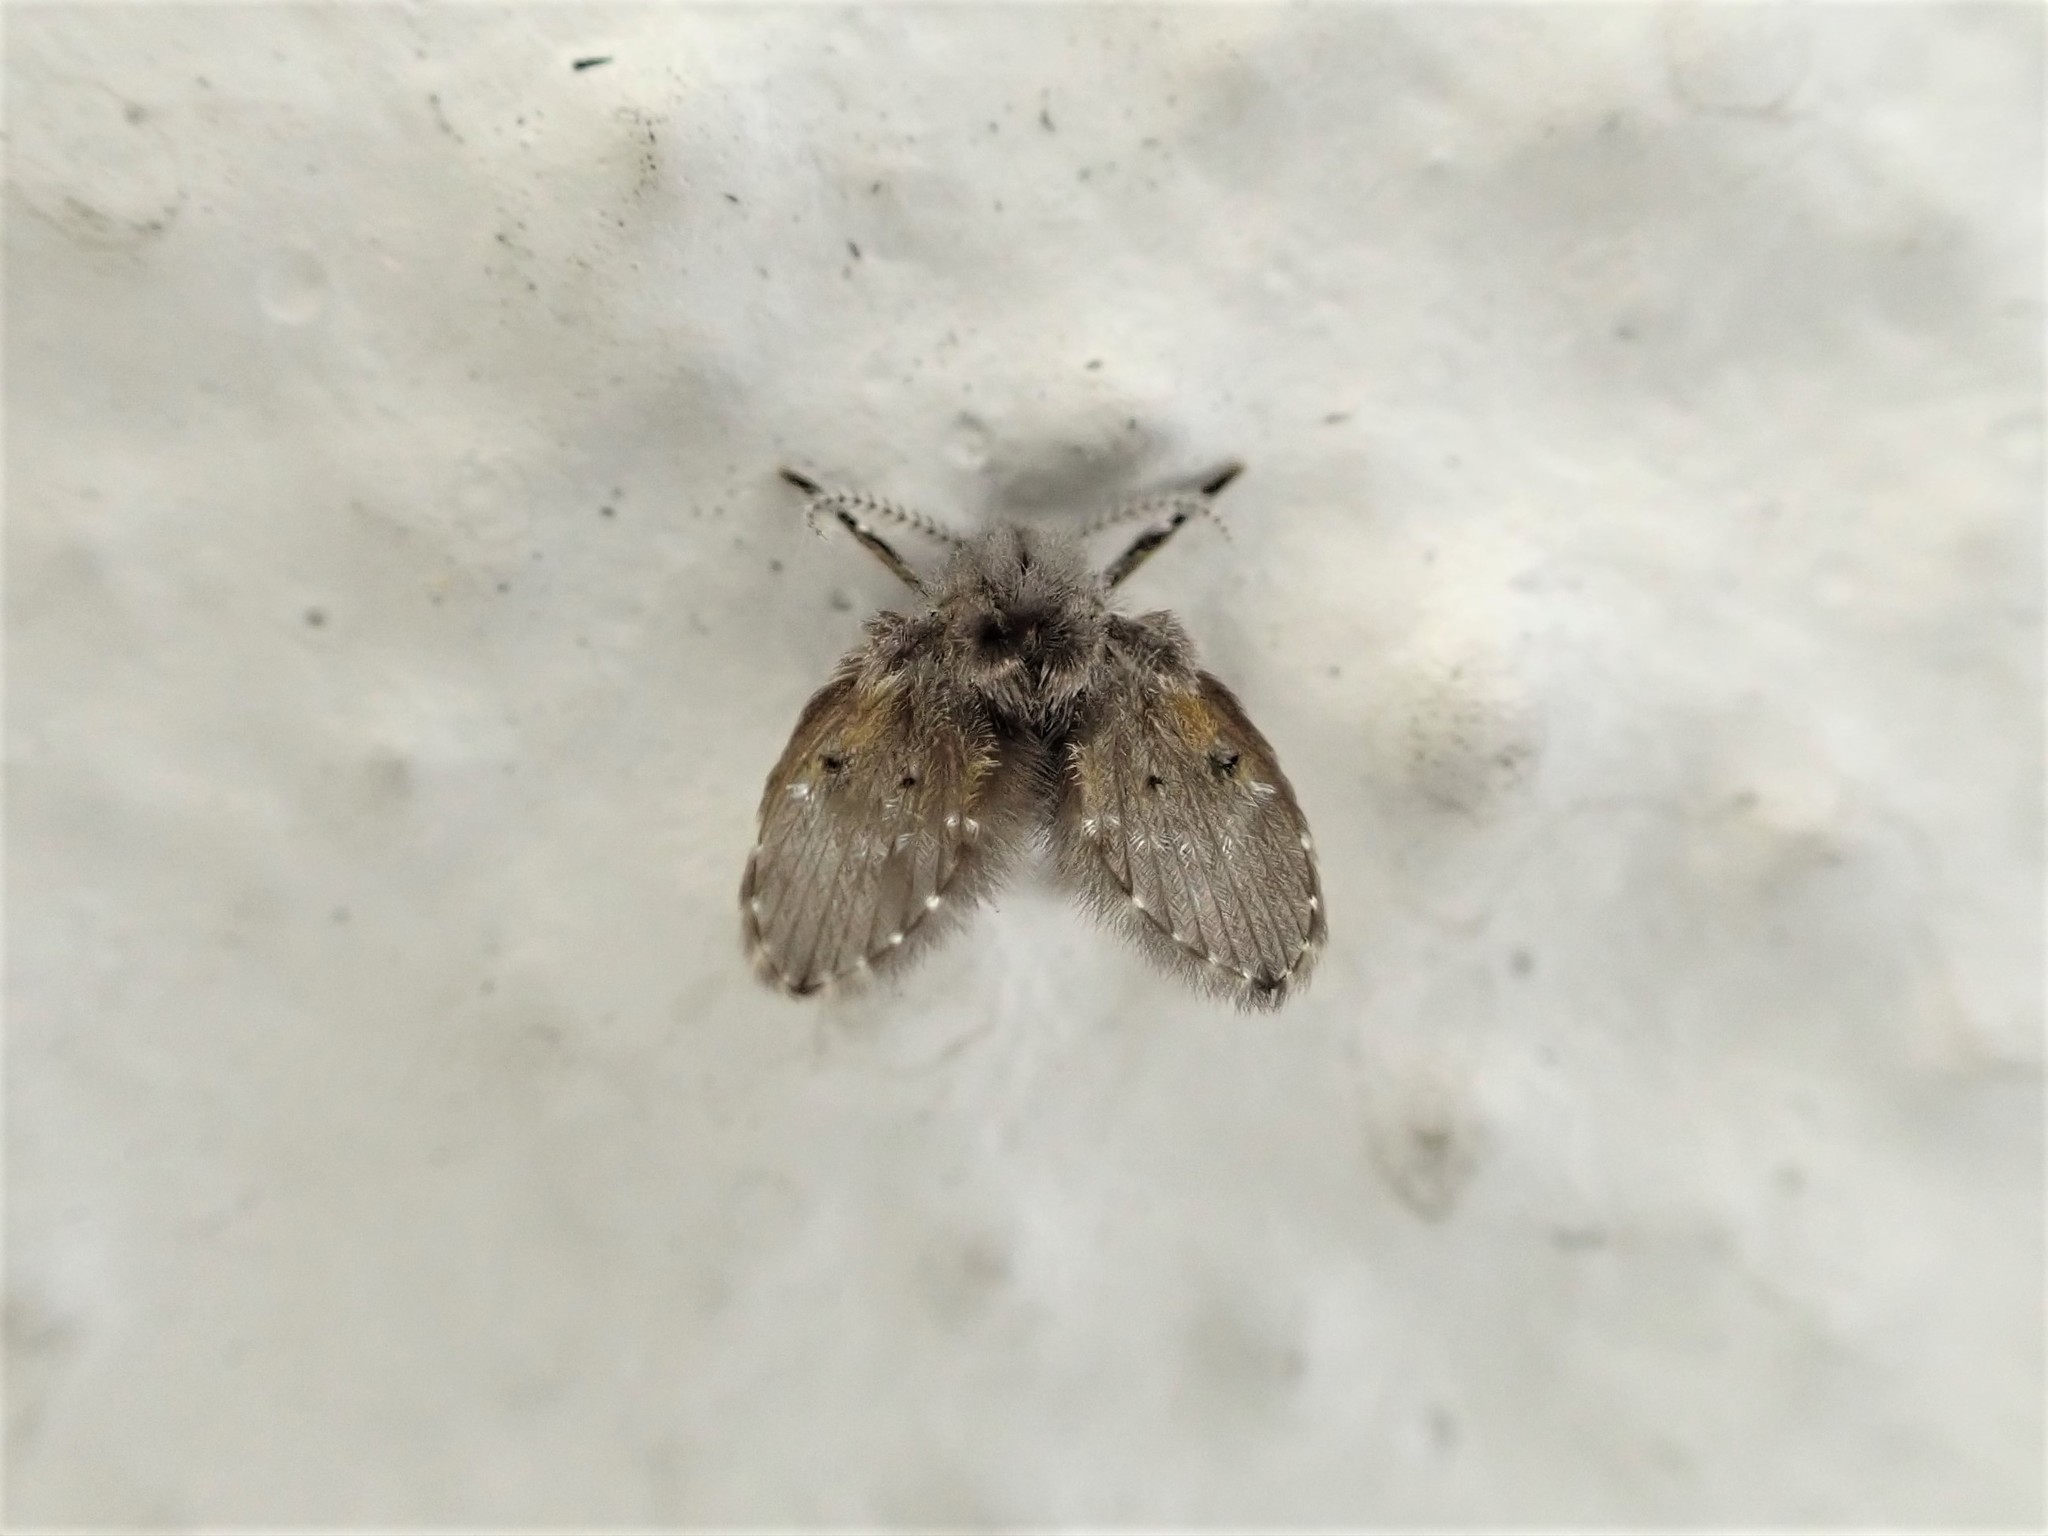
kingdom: Animalia
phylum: Arthropoda
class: Insecta
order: Diptera
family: Psychodidae
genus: Clogmia
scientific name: Clogmia albipunctatus
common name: White-spotted moth fly
